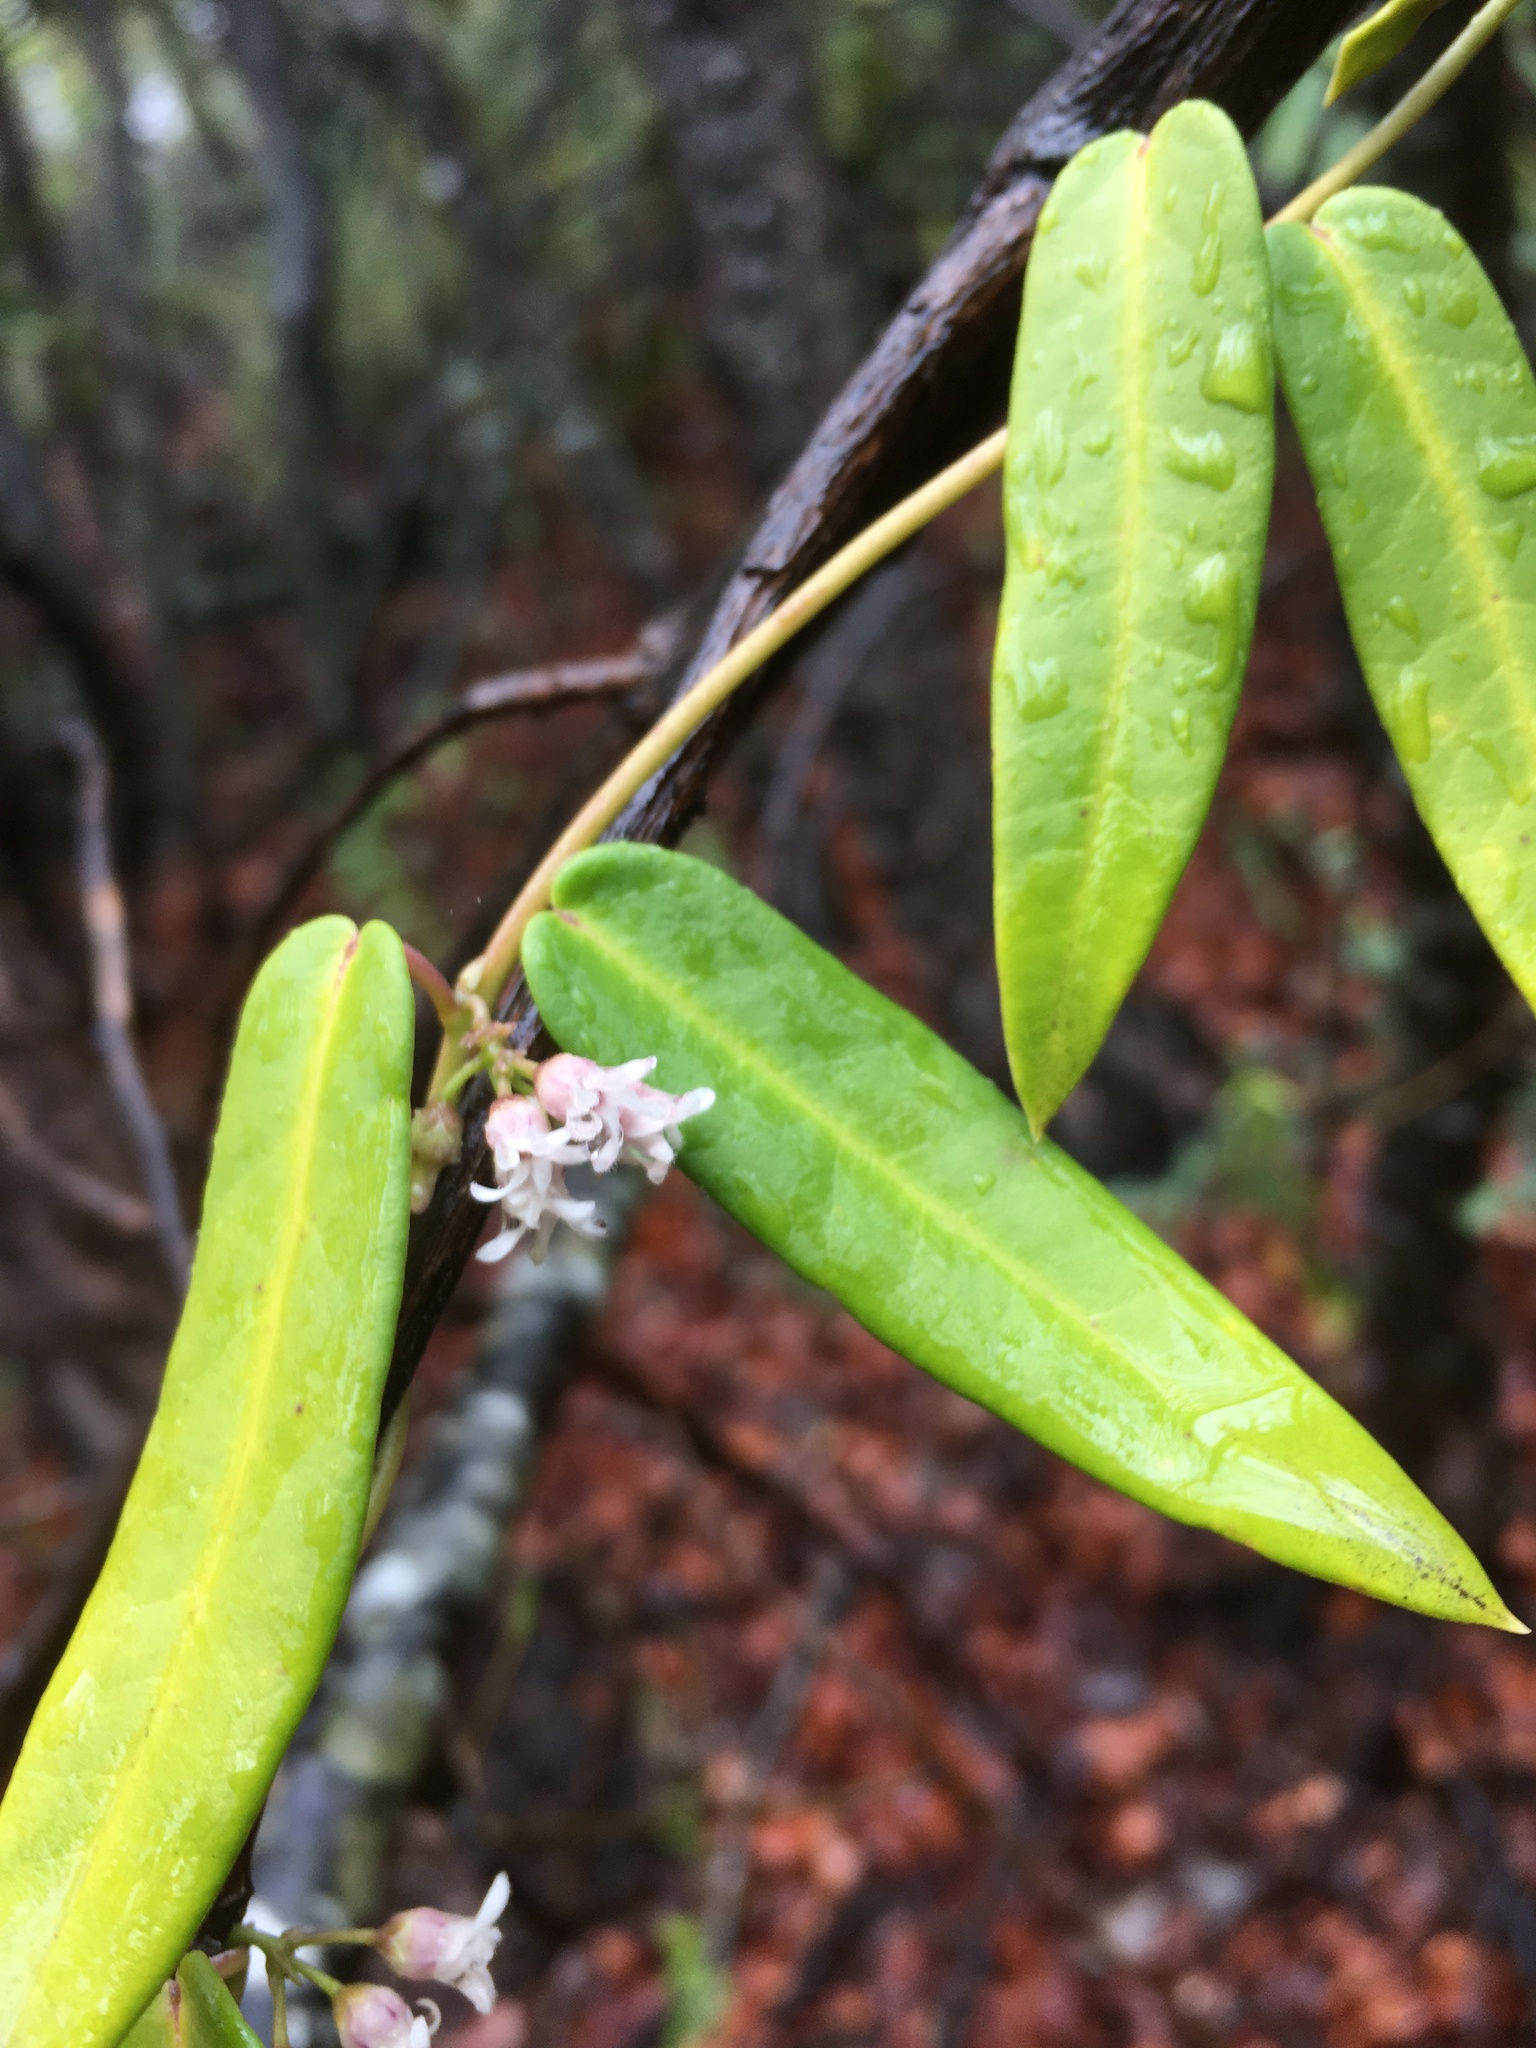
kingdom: Plantae
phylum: Tracheophyta
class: Magnoliopsida
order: Gentianales
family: Apocynaceae
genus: Diplolepis
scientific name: Diplolepis pachyphylla
